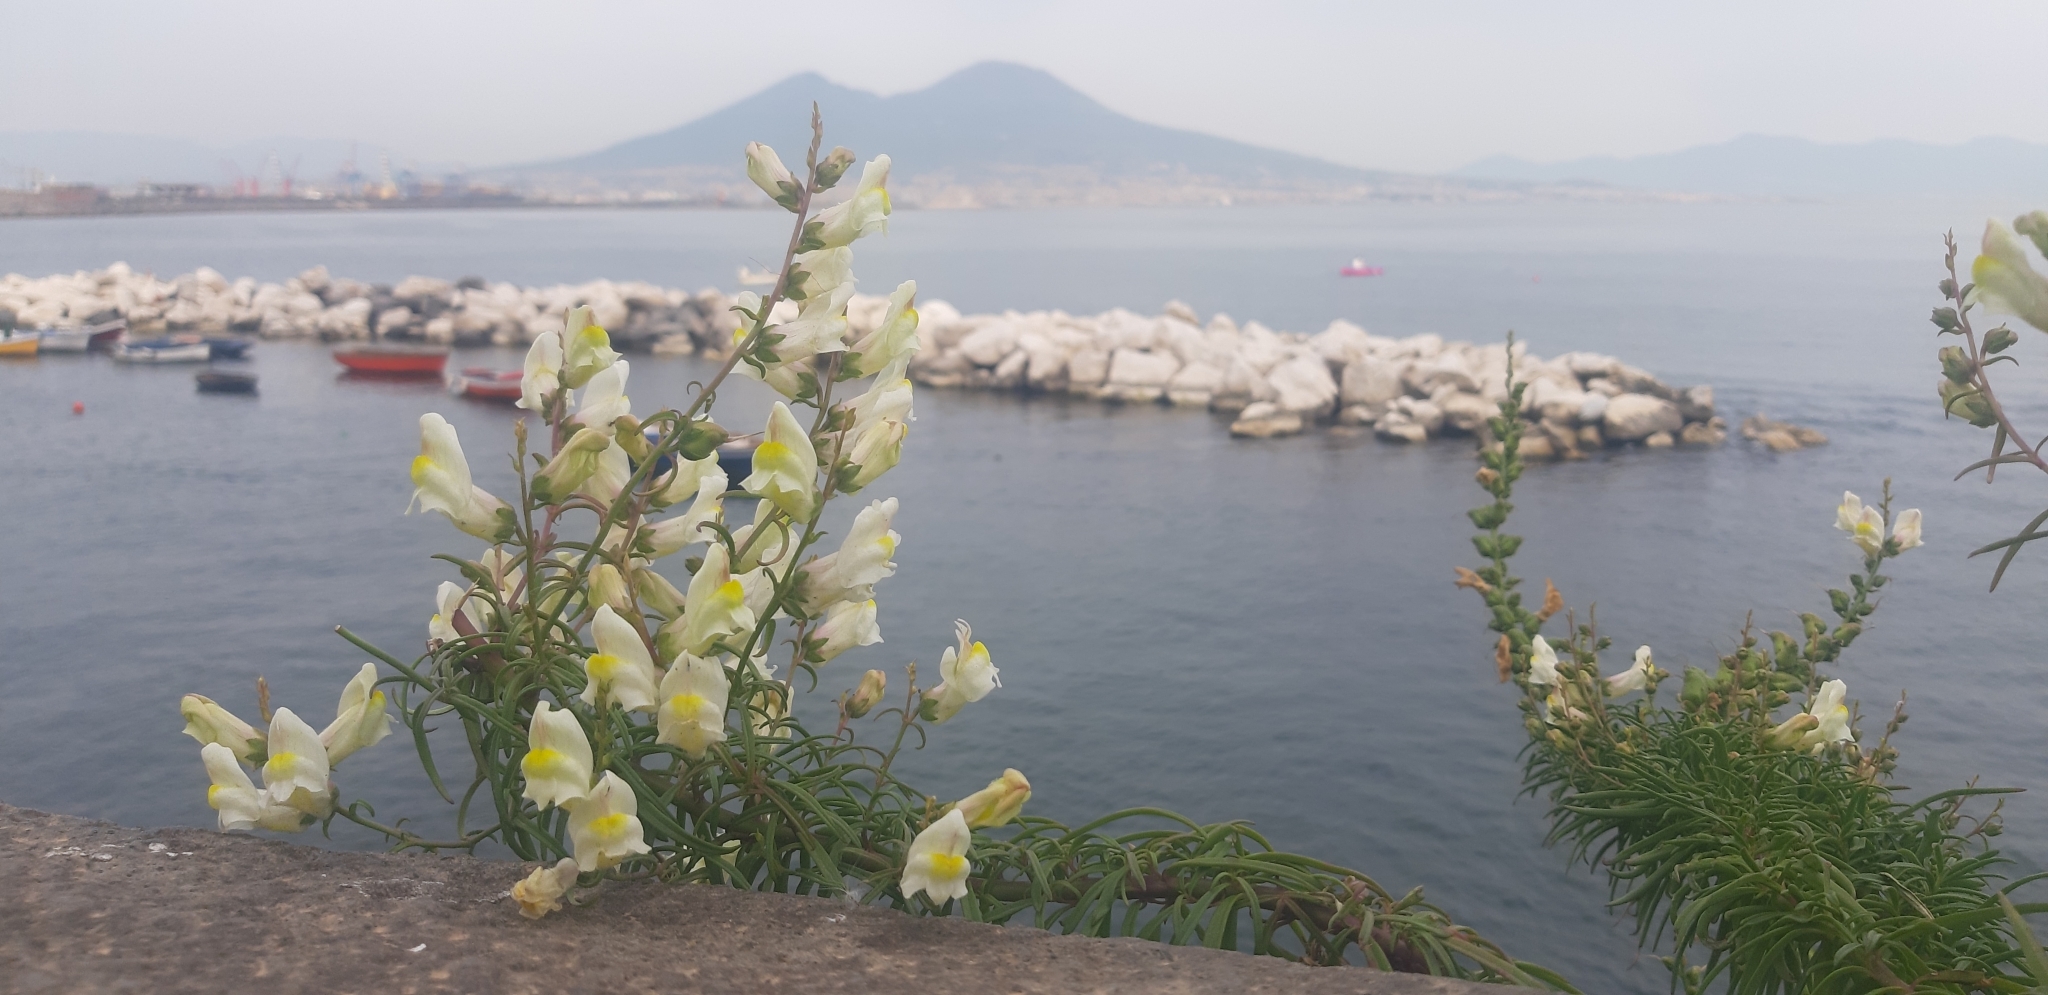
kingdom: Plantae
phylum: Tracheophyta
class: Magnoliopsida
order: Lamiales
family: Plantaginaceae
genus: Antirrhinum
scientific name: Antirrhinum siculum
